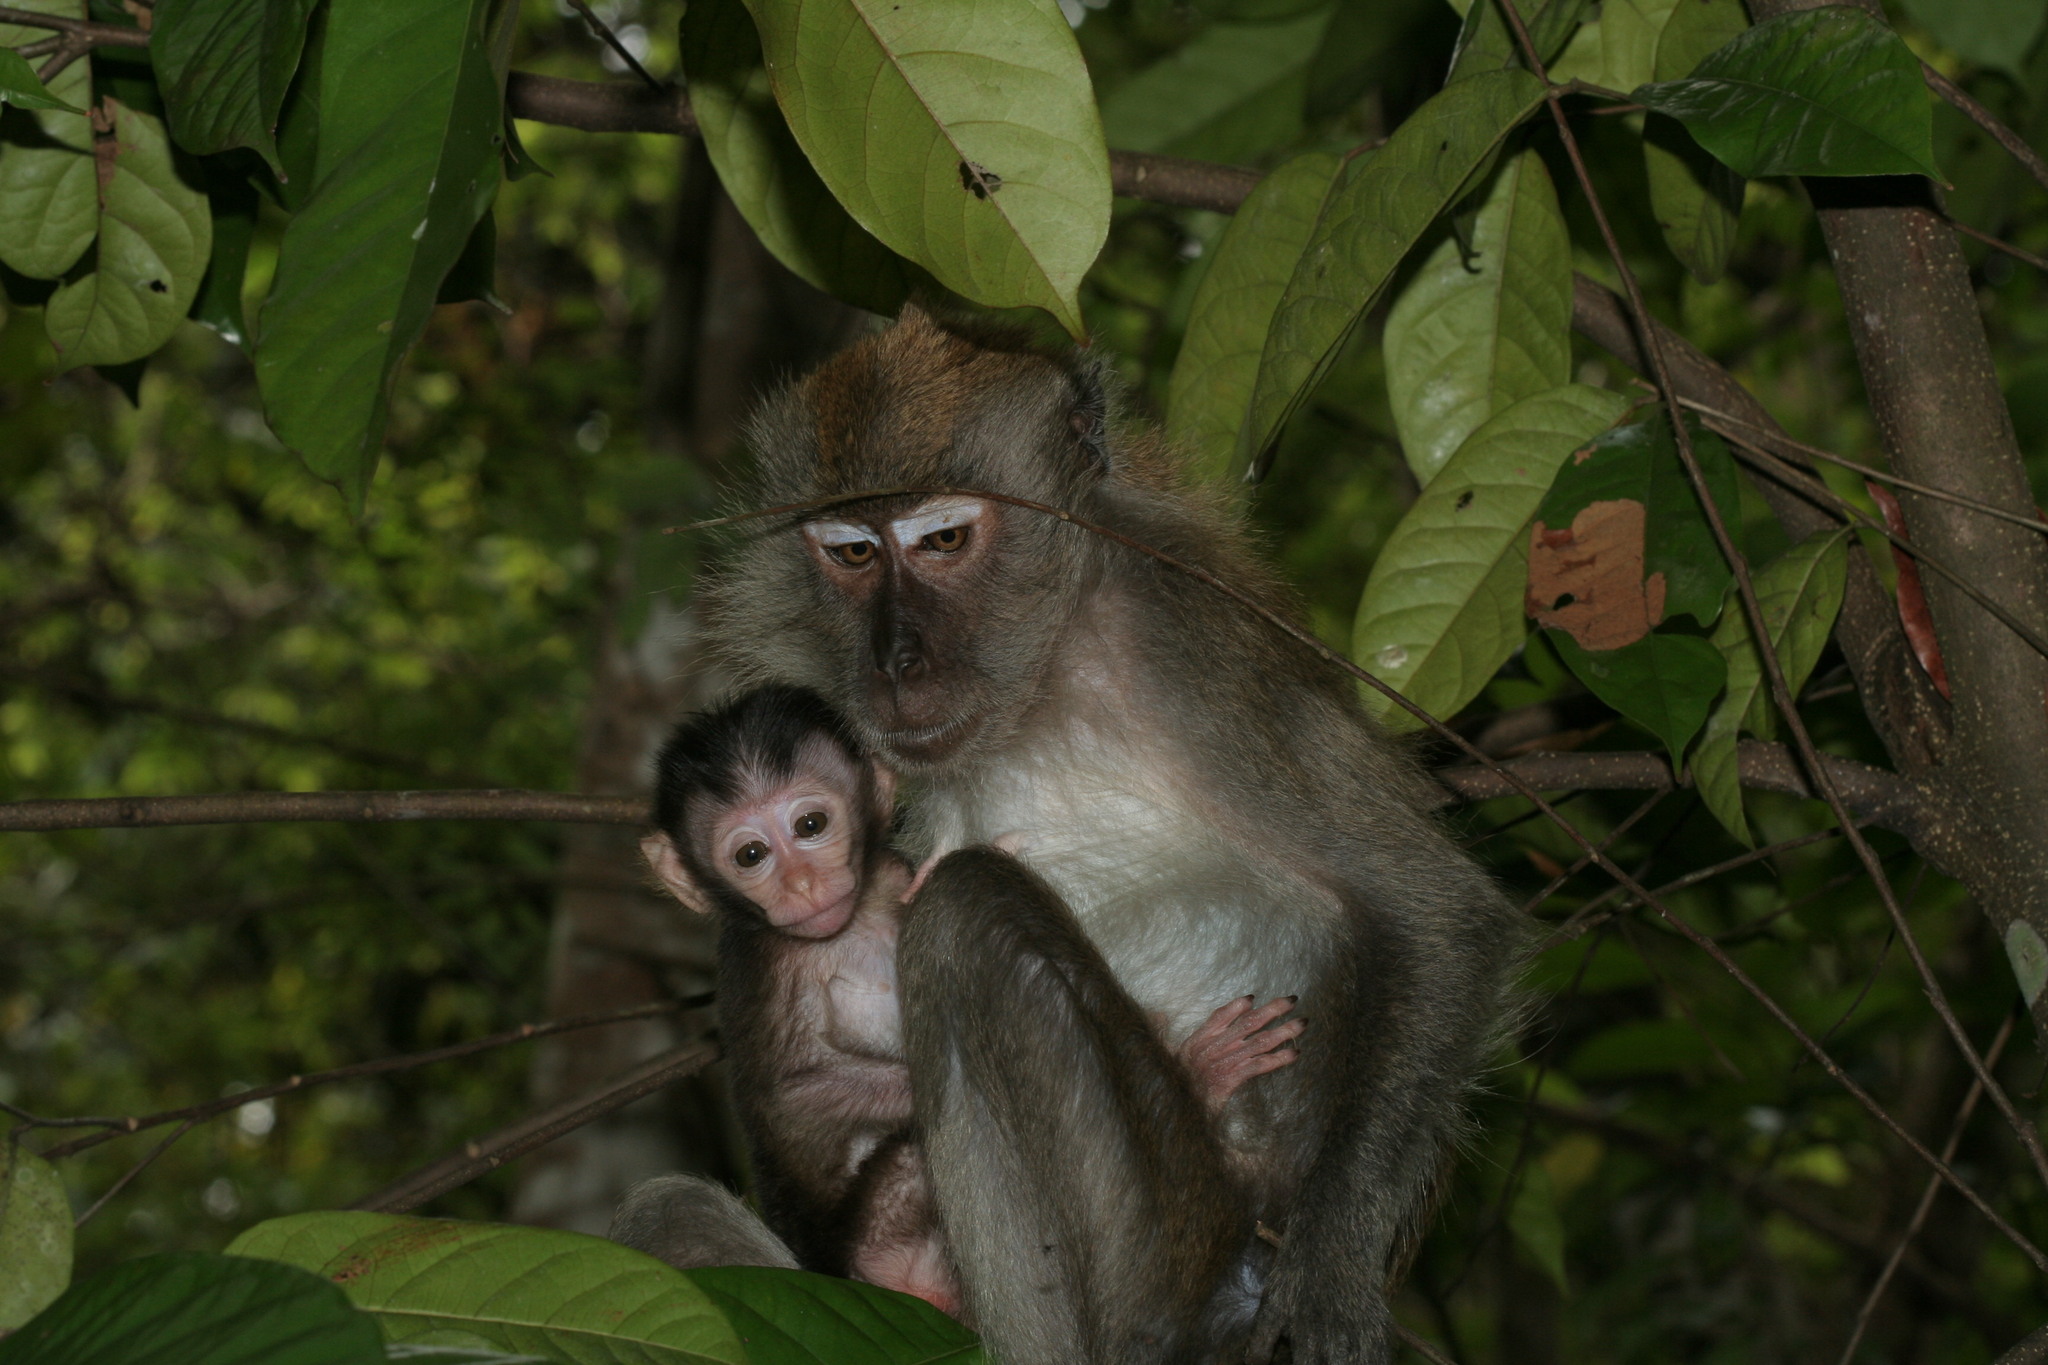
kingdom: Animalia
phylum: Chordata
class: Mammalia
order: Primates
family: Cercopithecidae
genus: Macaca
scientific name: Macaca fascicularis
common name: Crab-eating macaque
